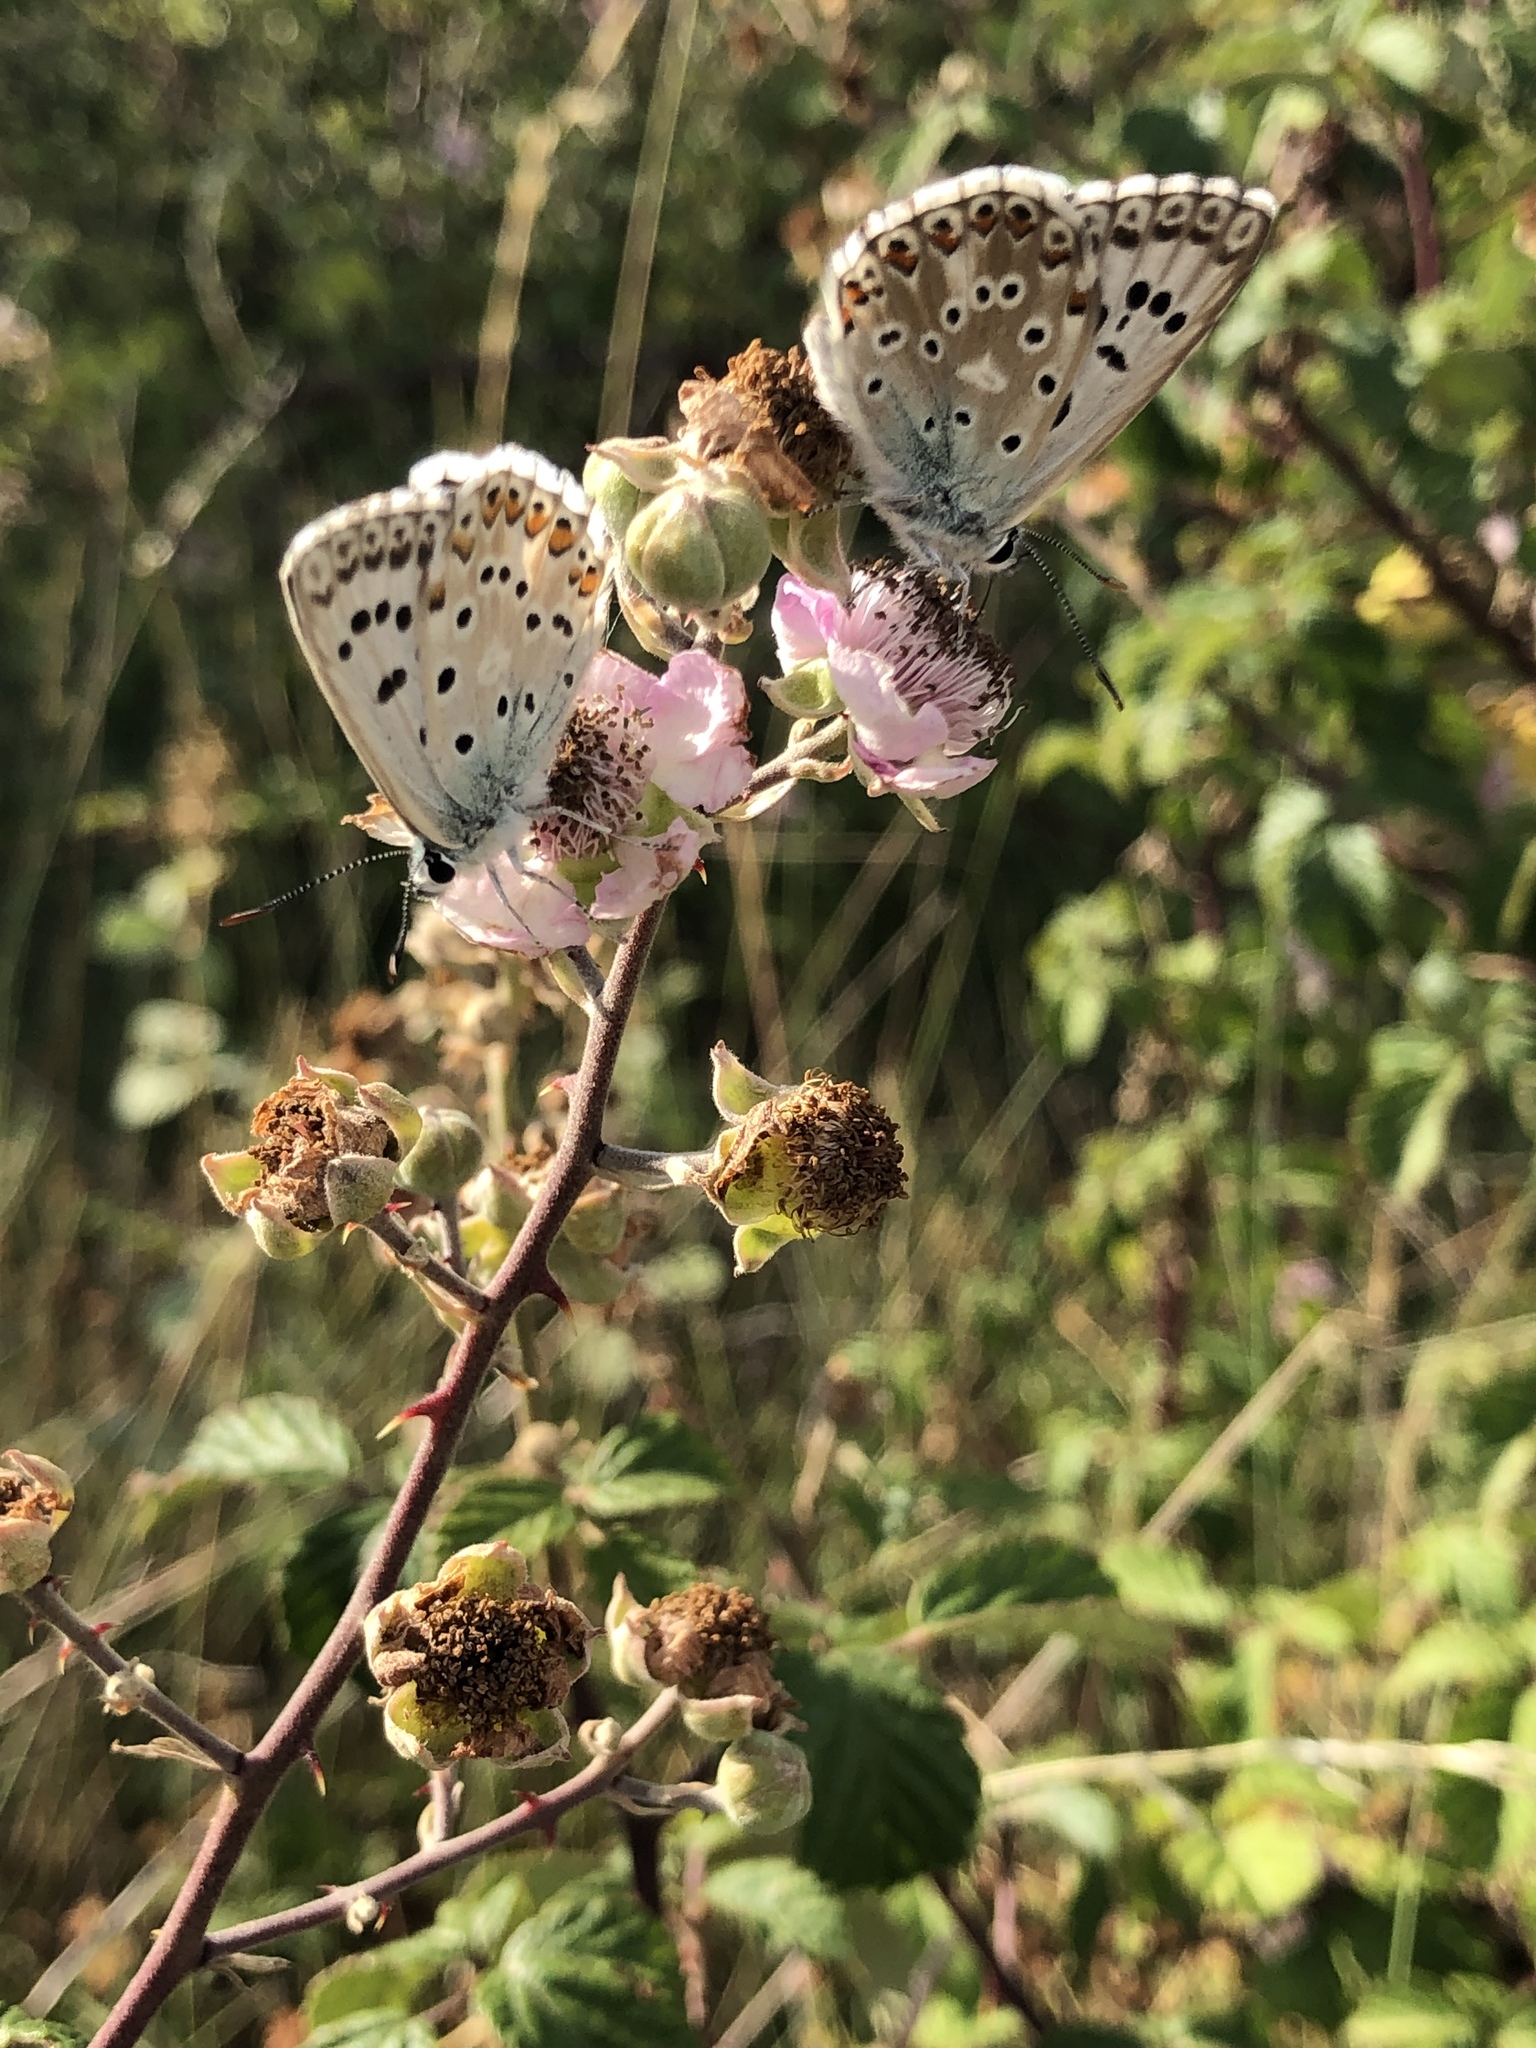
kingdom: Animalia
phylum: Arthropoda
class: Insecta
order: Lepidoptera
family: Lycaenidae
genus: Lysandra
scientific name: Lysandra hispana
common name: Provence chalkhill blue
